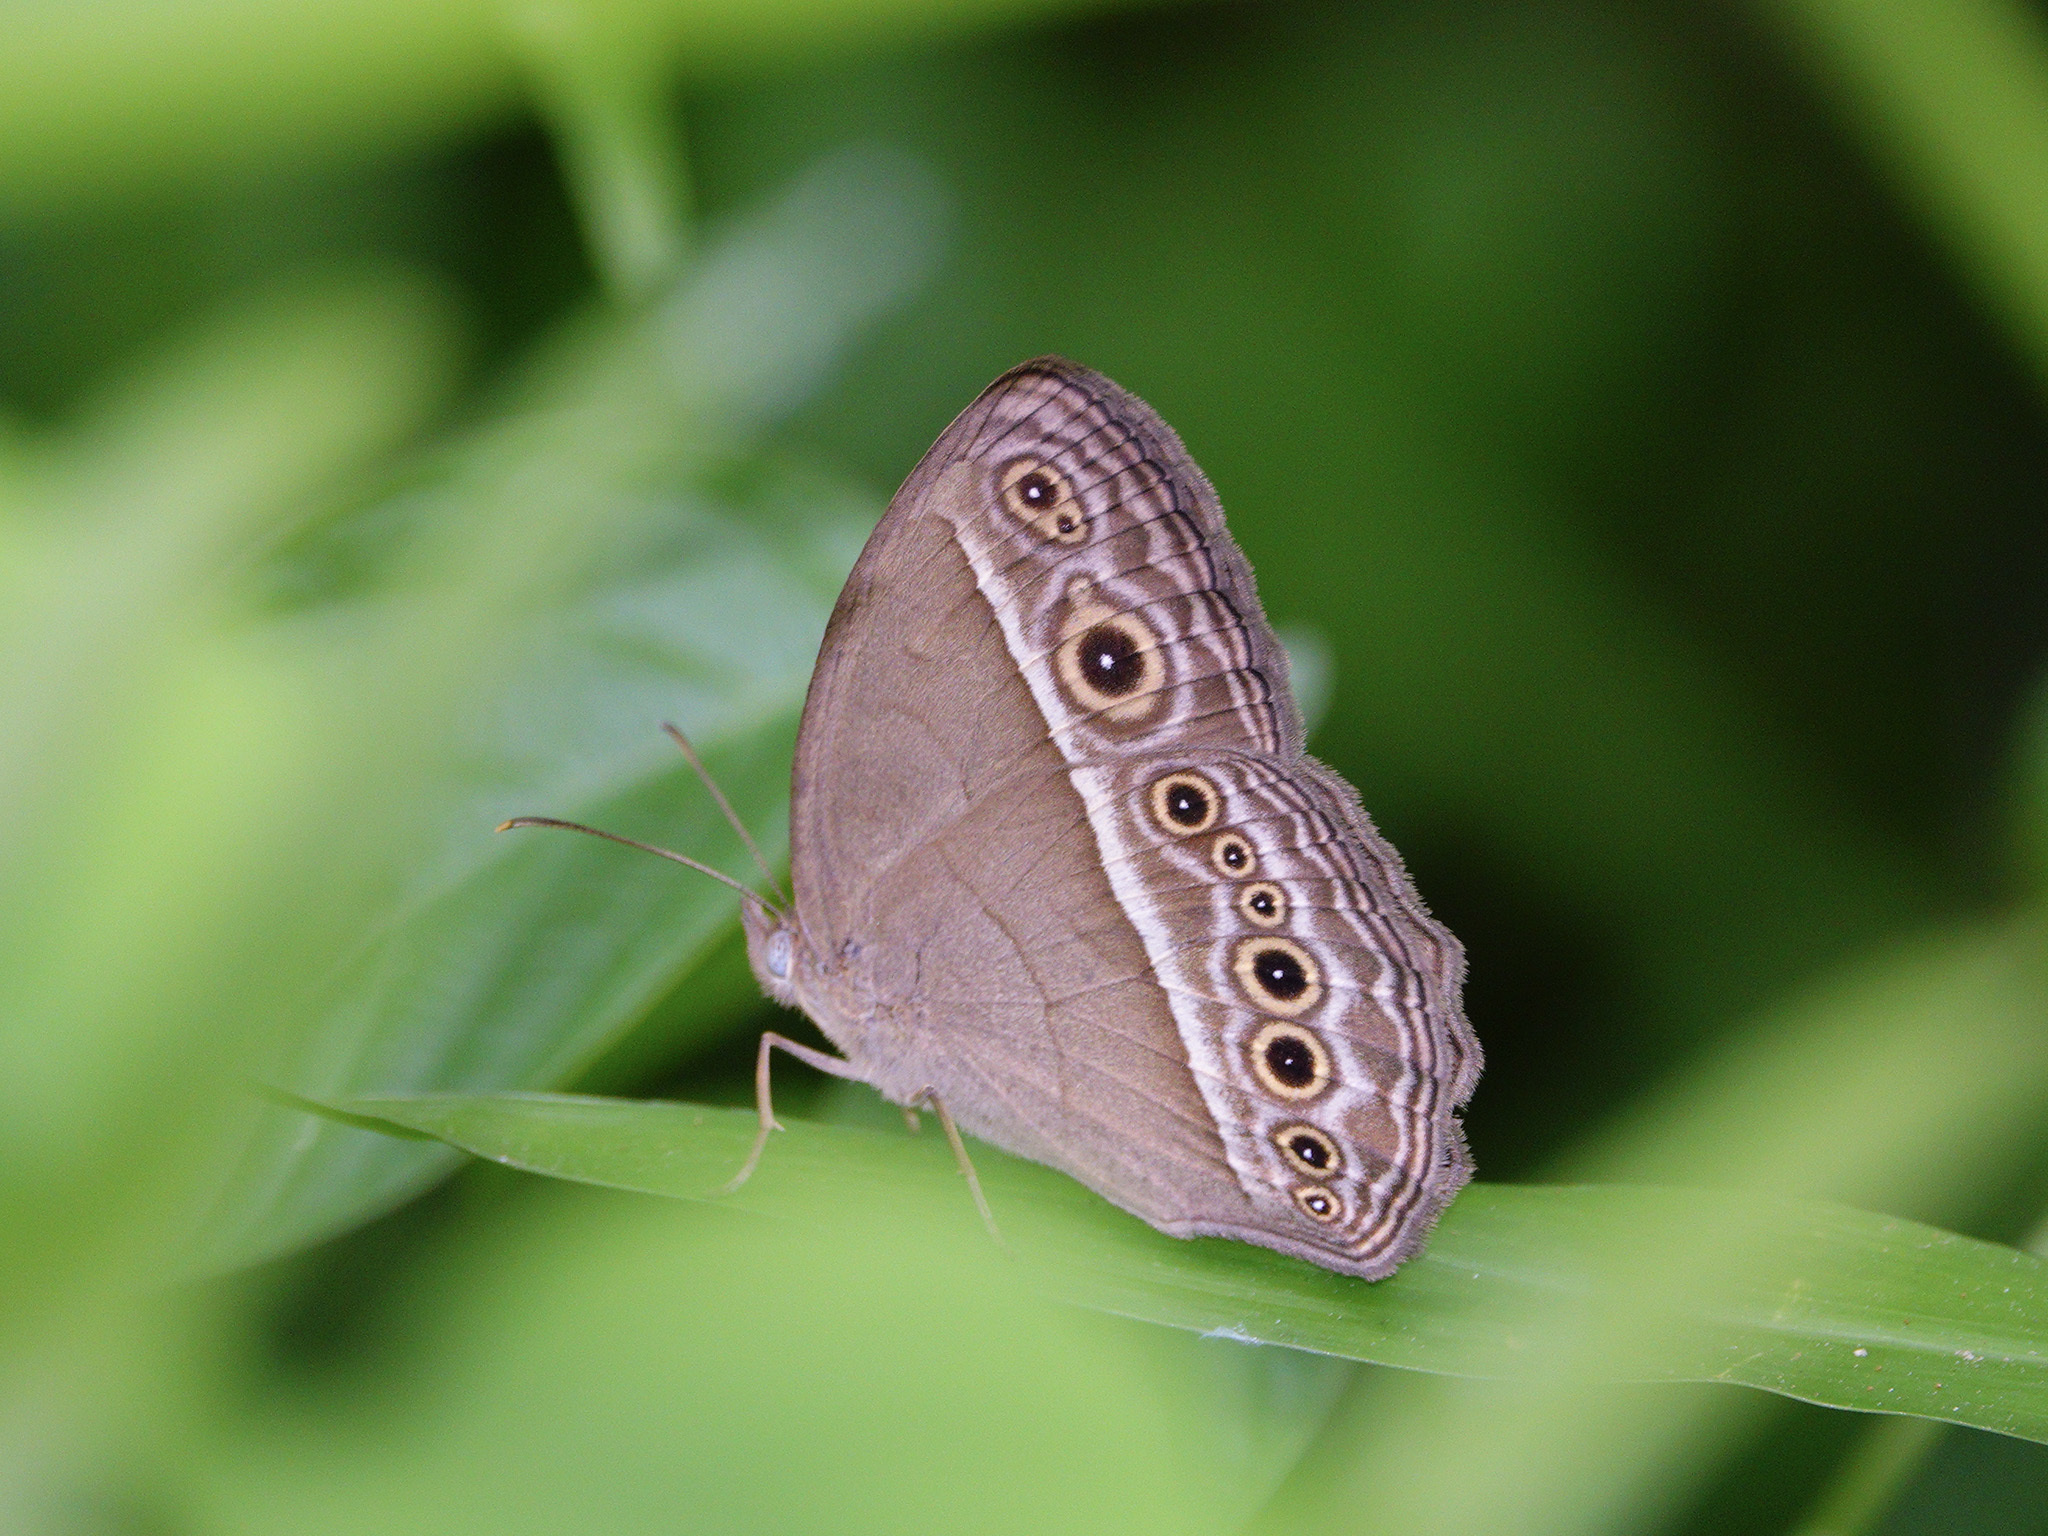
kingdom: Animalia
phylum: Arthropoda
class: Insecta
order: Lepidoptera
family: Nymphalidae
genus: Mycalesis
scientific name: Mycalesis visala
